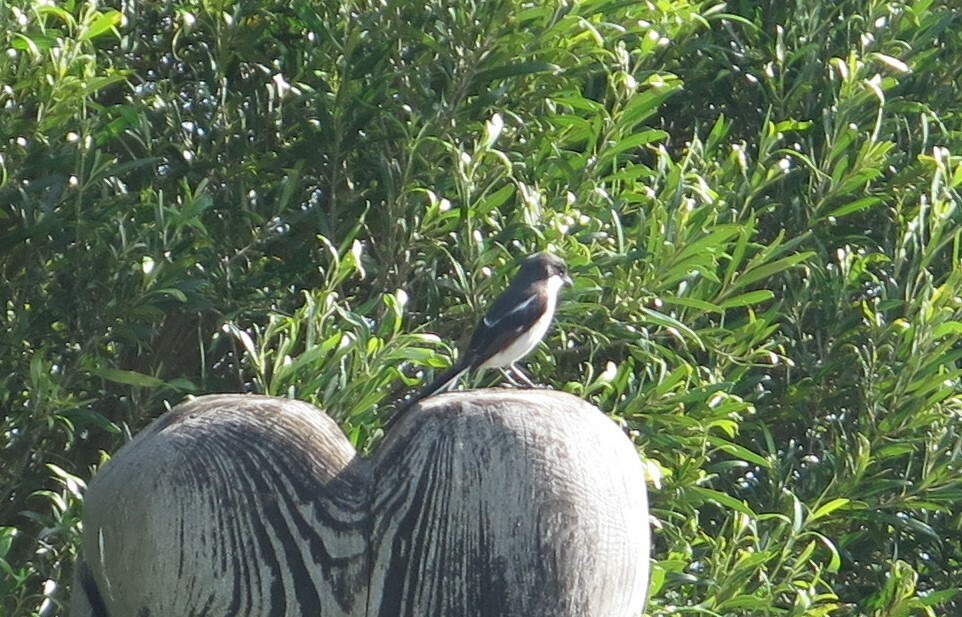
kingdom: Animalia
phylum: Chordata
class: Aves
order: Passeriformes
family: Laniidae
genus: Lanius
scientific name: Lanius collaris
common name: Southern fiscal
